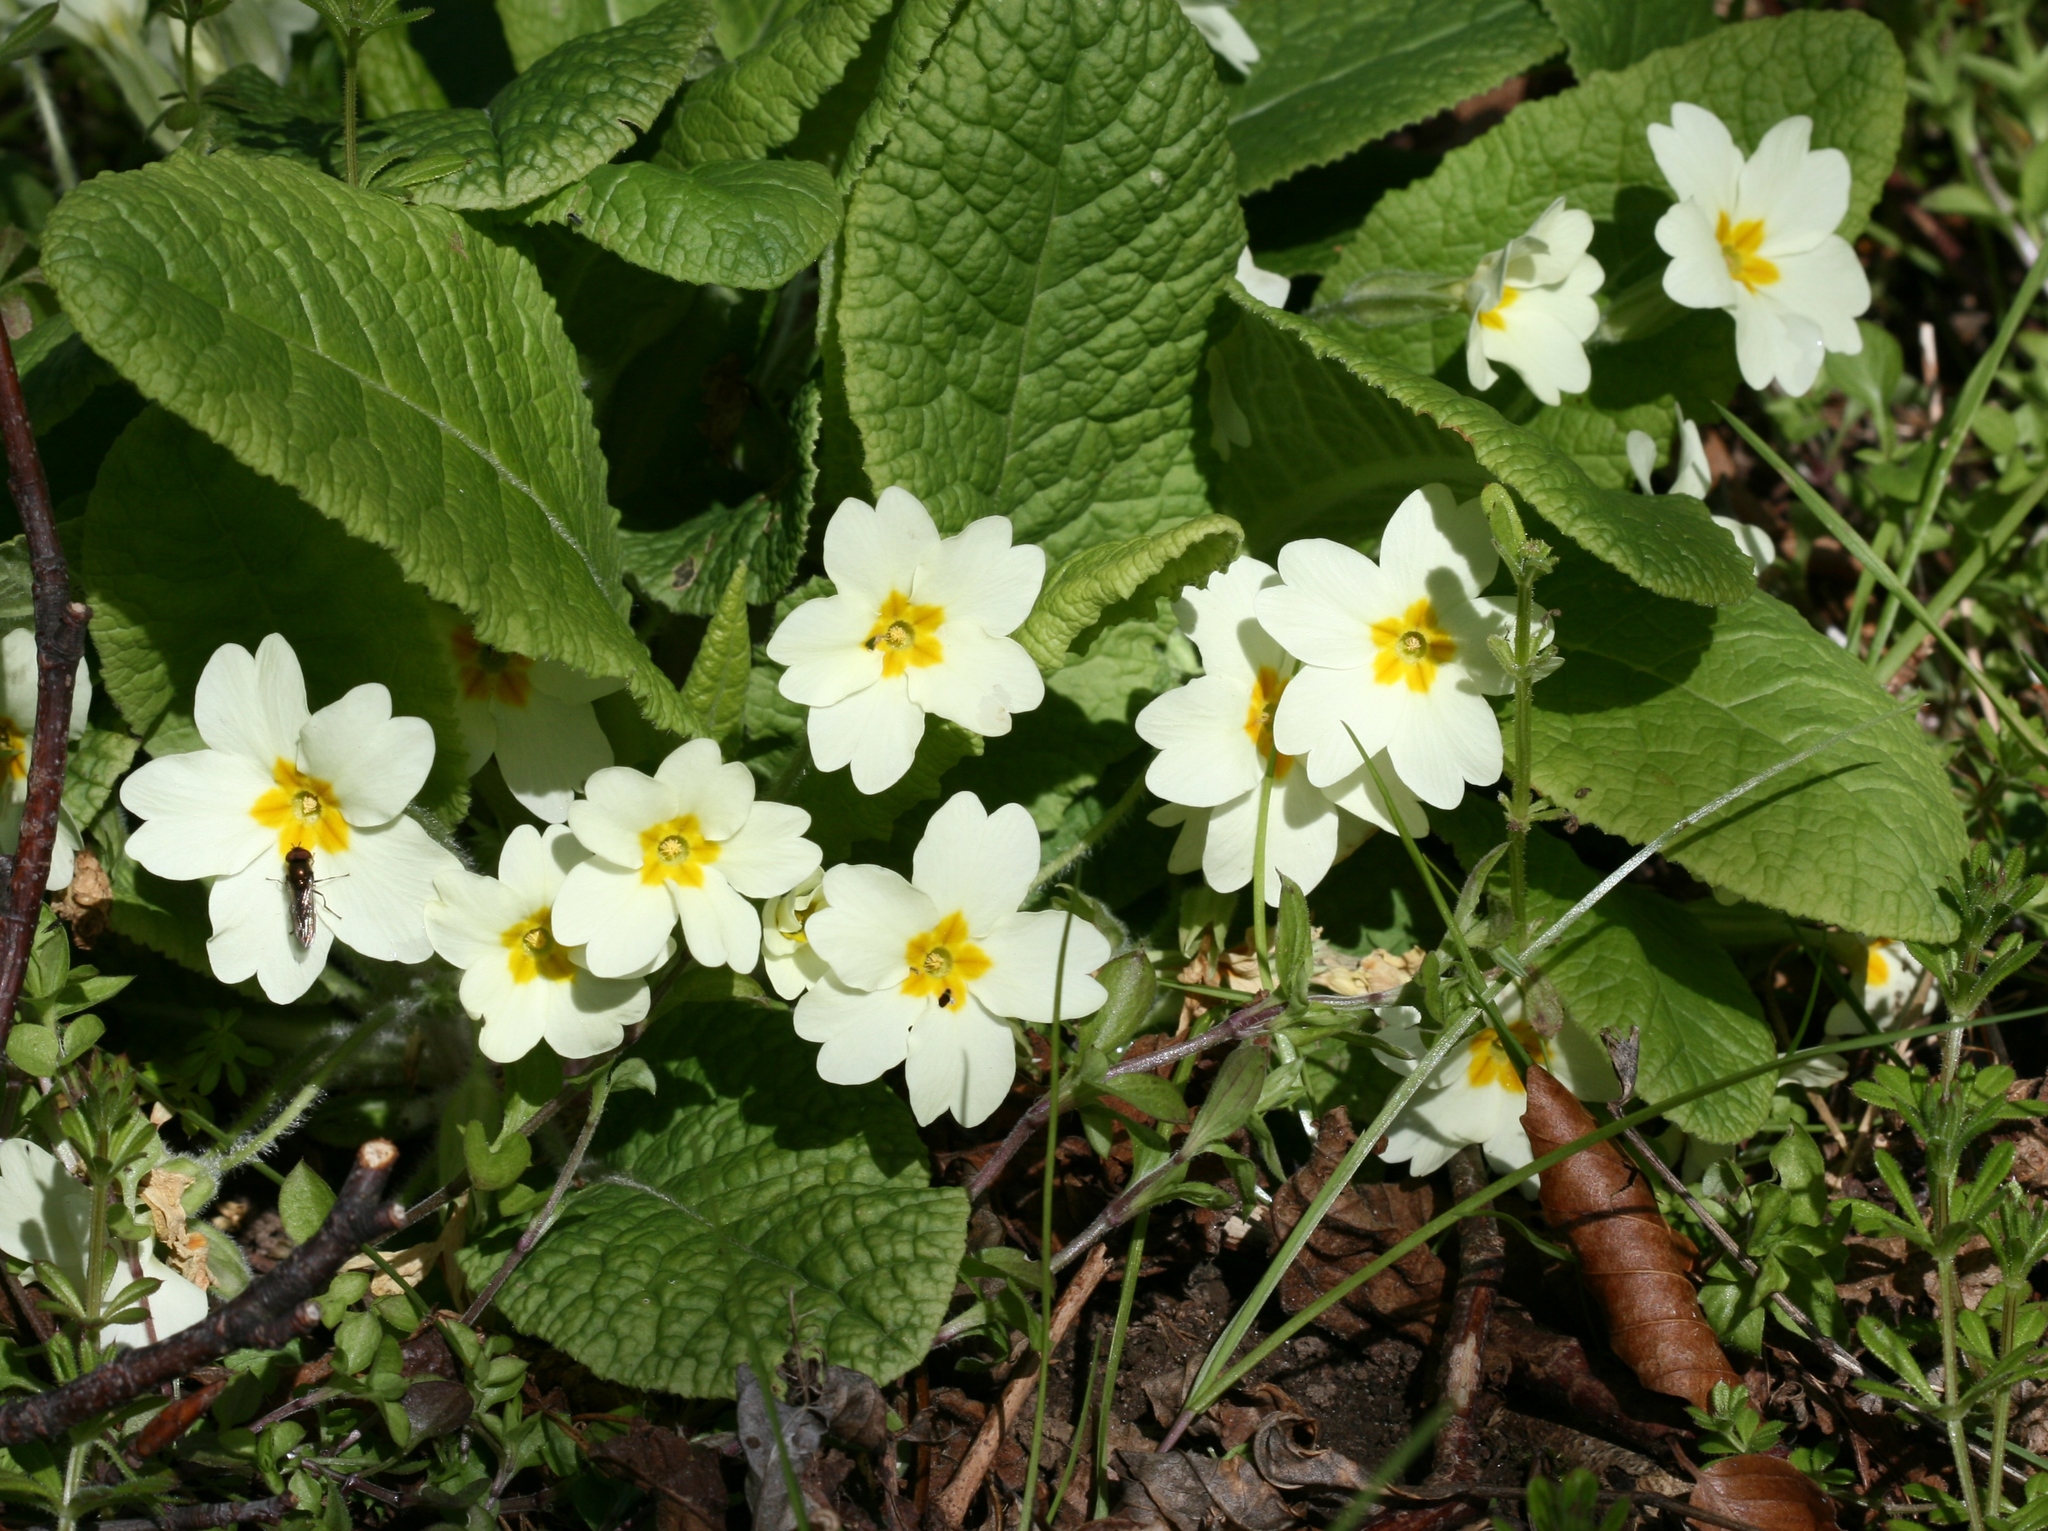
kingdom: Plantae
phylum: Tracheophyta
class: Magnoliopsida
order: Ericales
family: Primulaceae
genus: Primula
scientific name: Primula vulgaris
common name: Primrose
